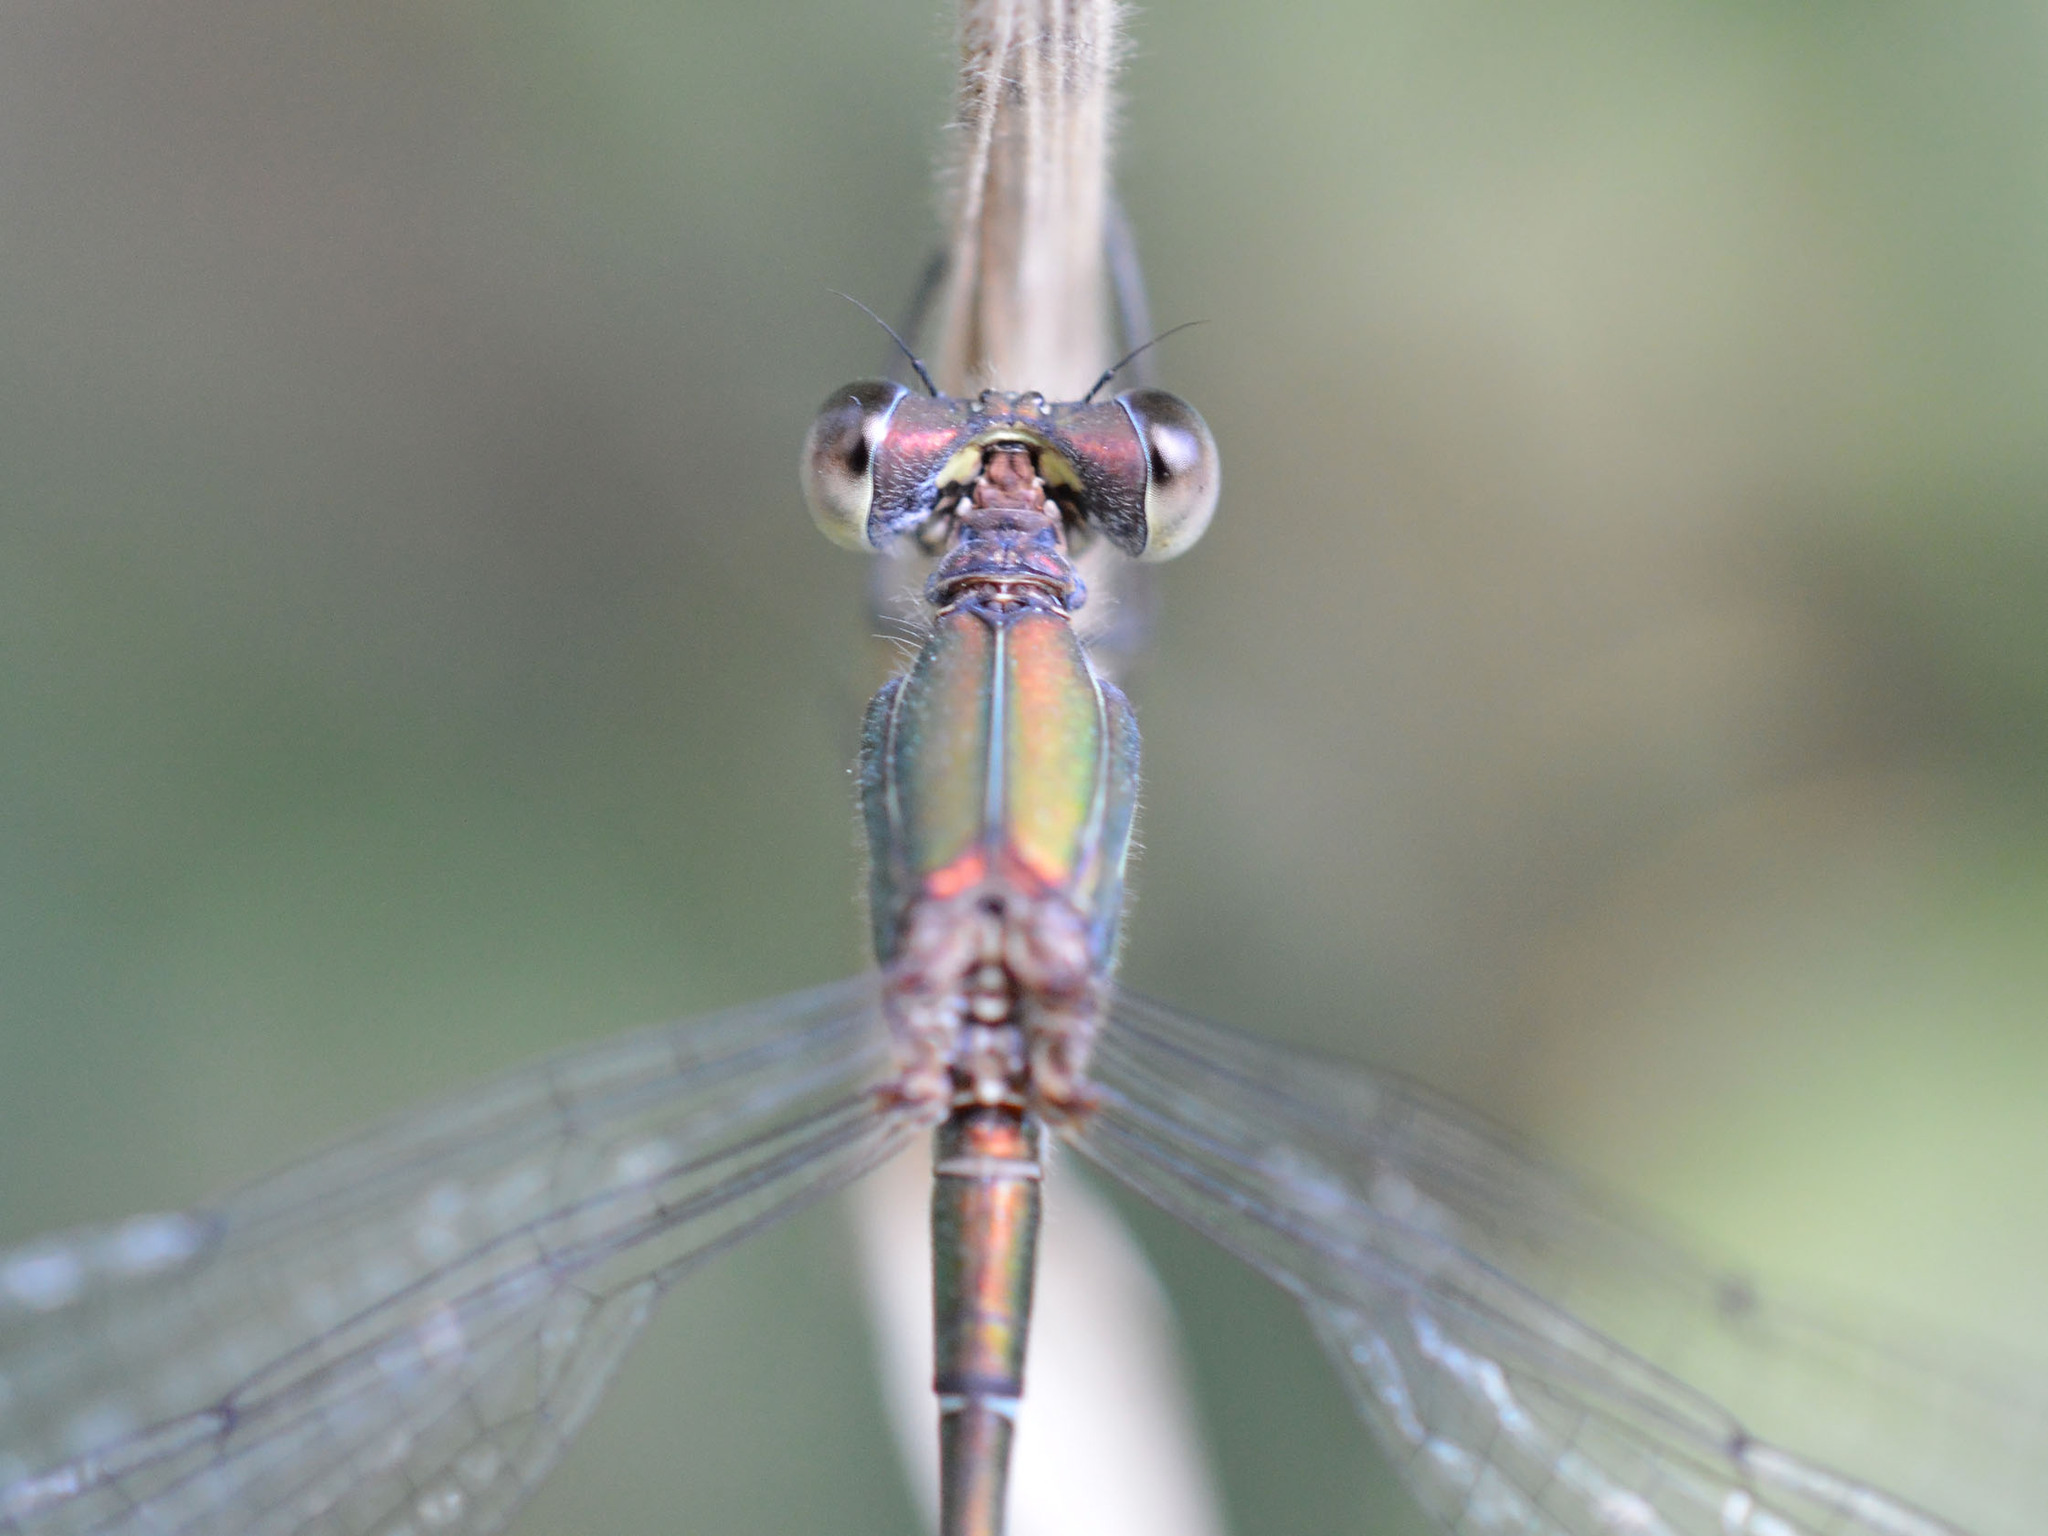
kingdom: Animalia
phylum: Arthropoda
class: Insecta
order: Odonata
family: Lestidae
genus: Chalcolestes
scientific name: Chalcolestes viridis
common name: Green emerald damselfly
